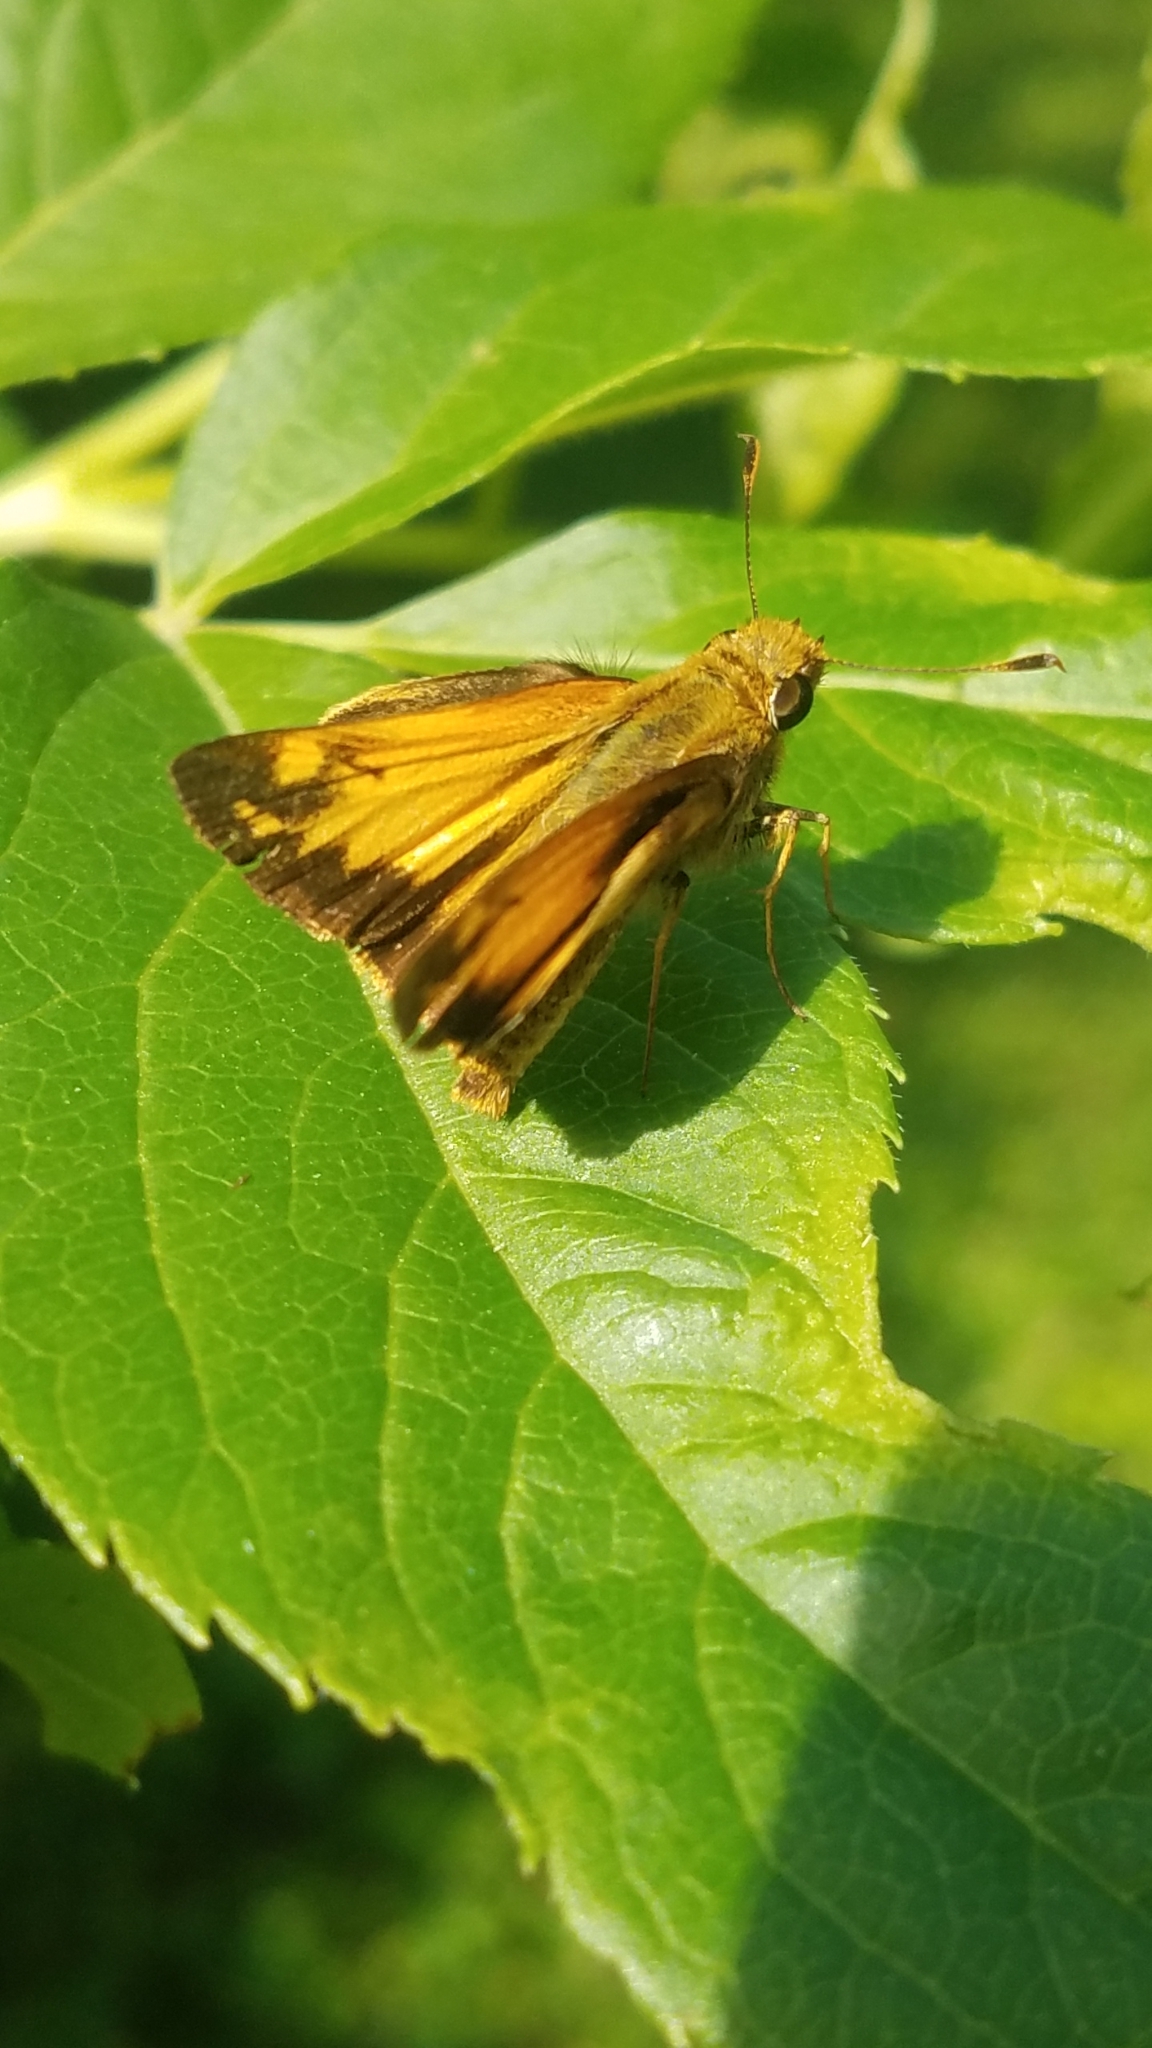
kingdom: Animalia
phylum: Arthropoda
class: Insecta
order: Lepidoptera
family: Hesperiidae
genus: Lon
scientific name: Lon zabulon
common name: Zabulon skipper
